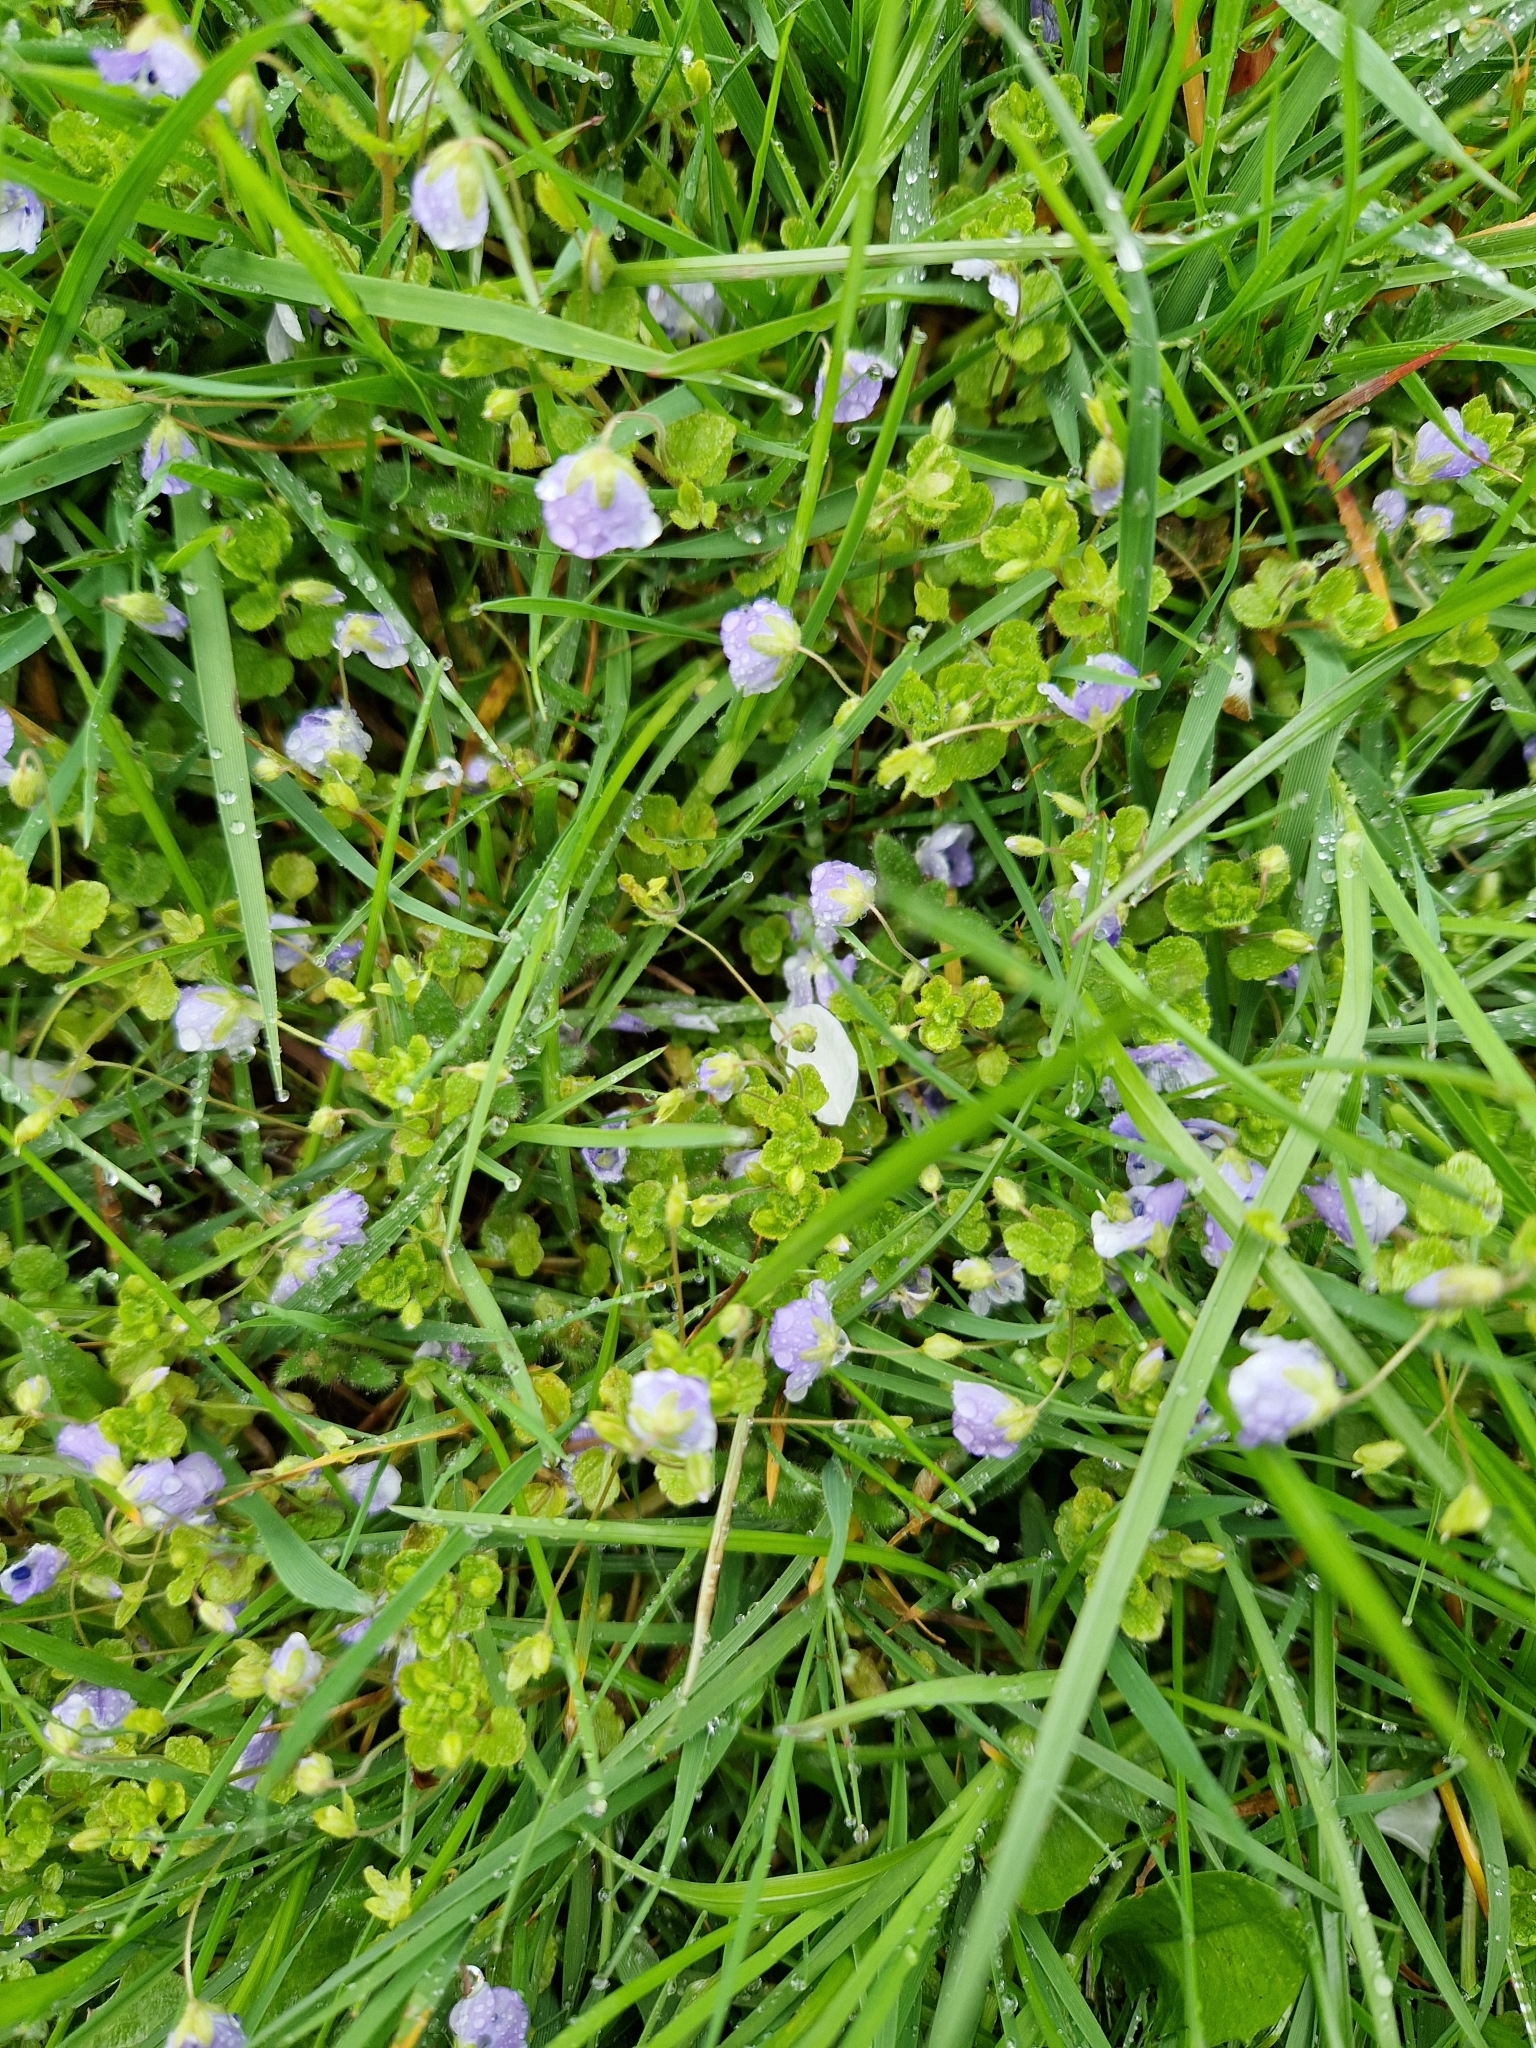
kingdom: Plantae
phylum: Tracheophyta
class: Magnoliopsida
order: Lamiales
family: Plantaginaceae
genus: Veronica
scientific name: Veronica filiformis
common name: Slender speedwell
